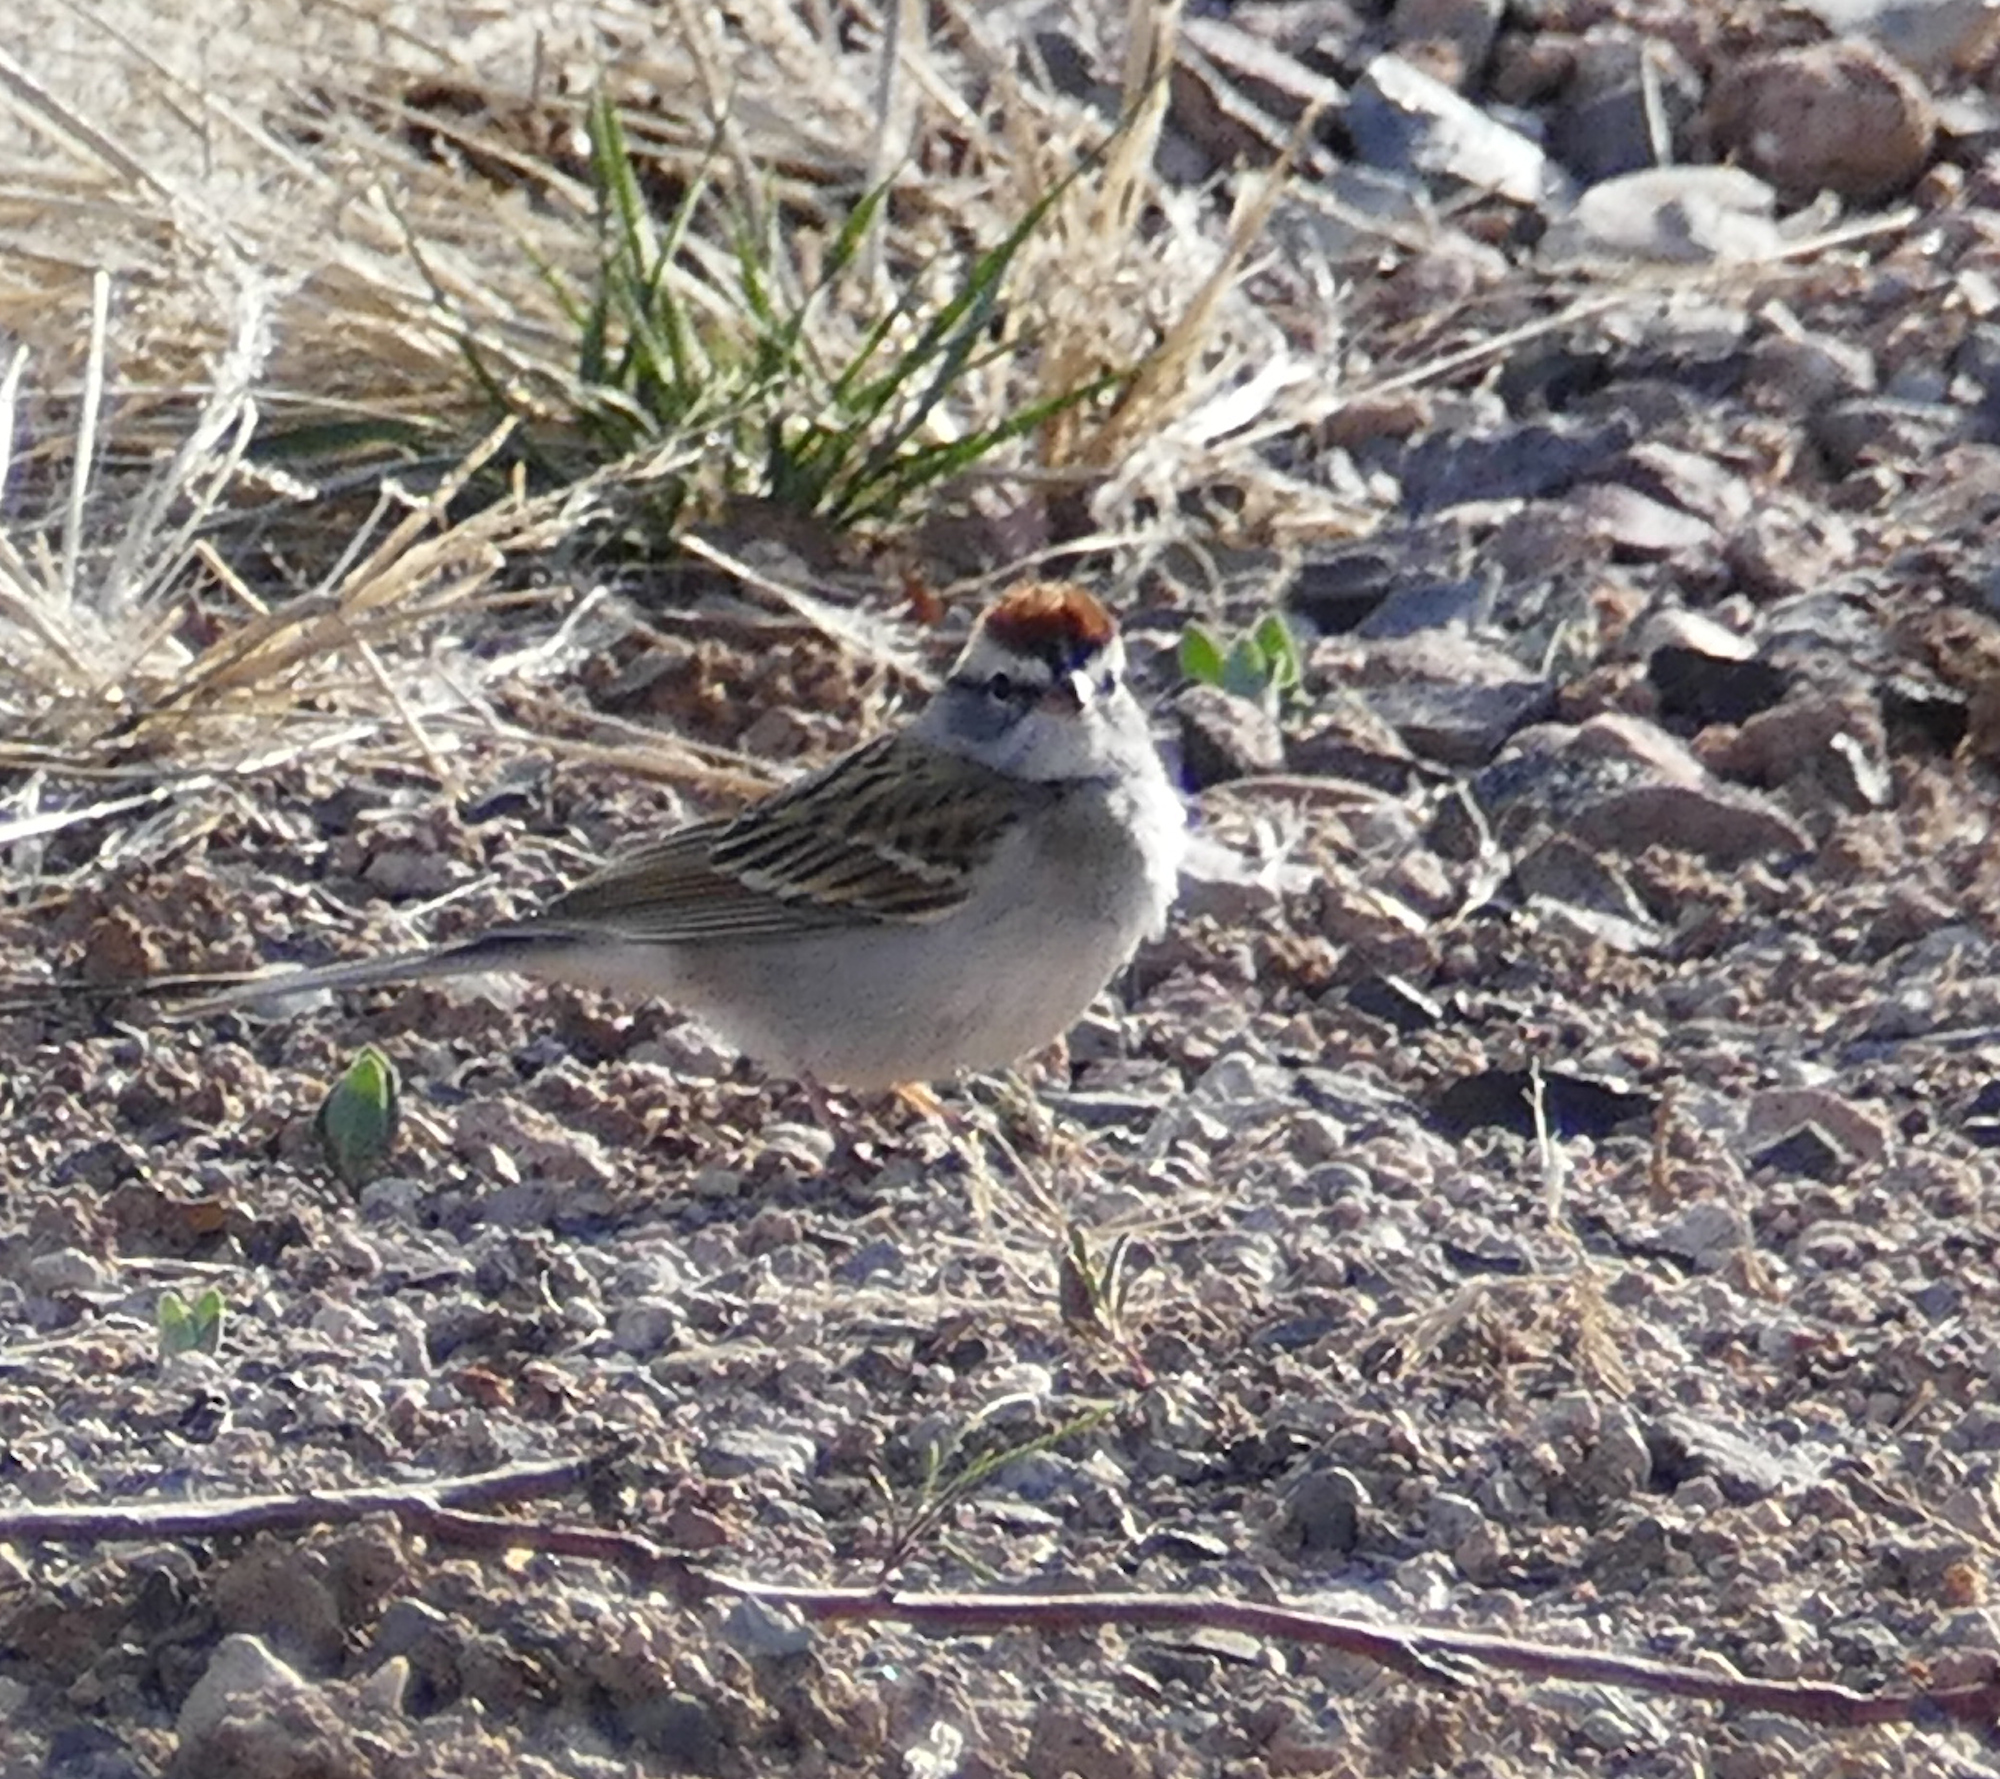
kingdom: Animalia
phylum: Chordata
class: Aves
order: Passeriformes
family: Passerellidae
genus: Spizella
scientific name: Spizella passerina
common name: Chipping sparrow
